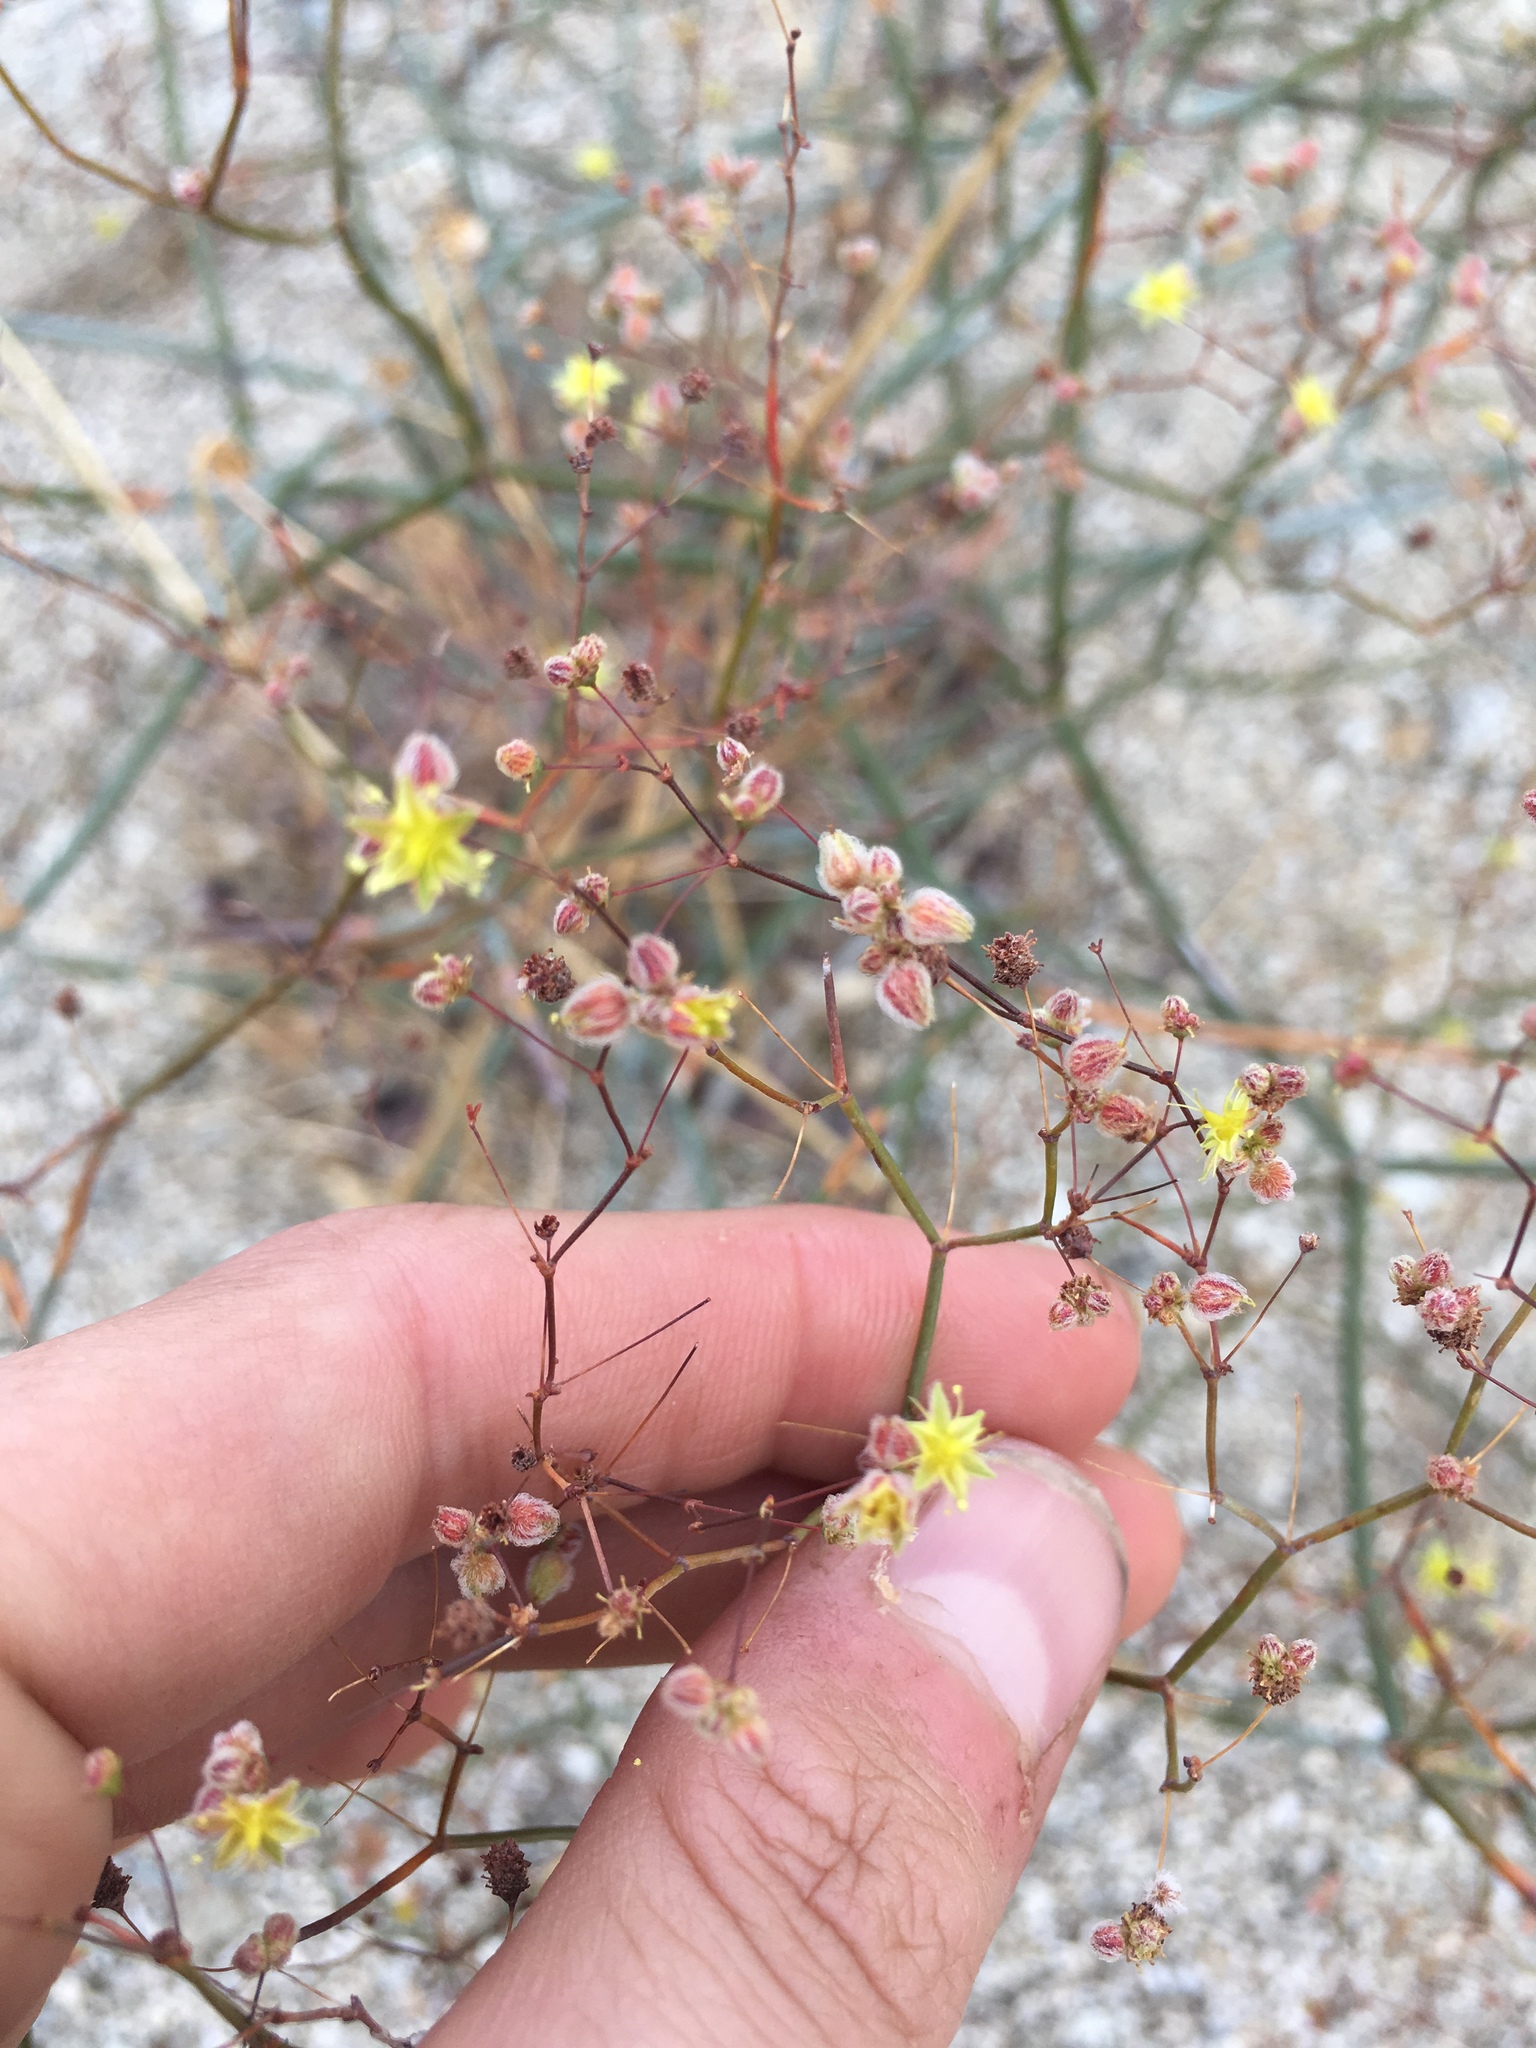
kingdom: Plantae
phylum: Tracheophyta
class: Magnoliopsida
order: Caryophyllales
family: Polygonaceae
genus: Eriogonum
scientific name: Eriogonum inflatum
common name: Desert trumpet
